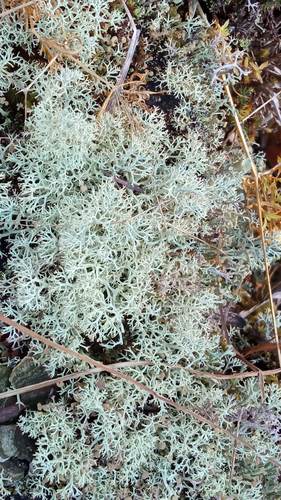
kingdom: Fungi
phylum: Ascomycota
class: Lecanoromycetes
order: Lecanorales
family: Cladoniaceae
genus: Cladonia
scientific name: Cladonia arbuscula
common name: Reindeer lichen
